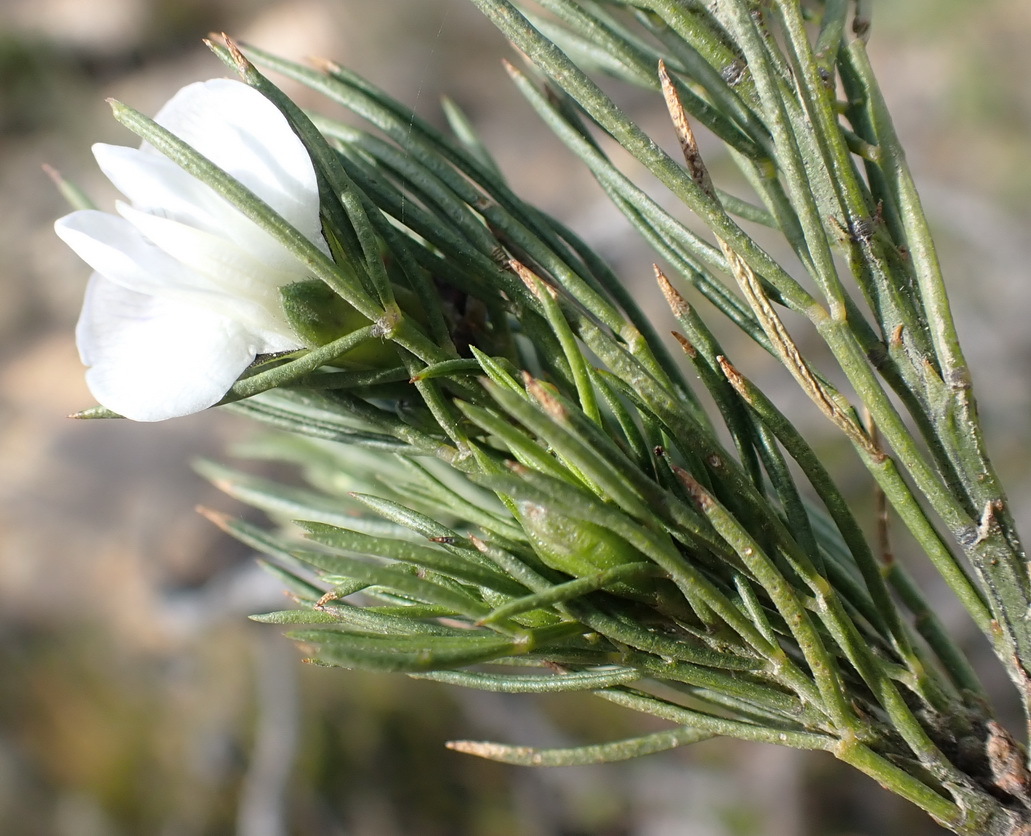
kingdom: Plantae
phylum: Tracheophyta
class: Magnoliopsida
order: Fabales
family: Fabaceae
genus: Psoralea
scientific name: Psoralea sordida
